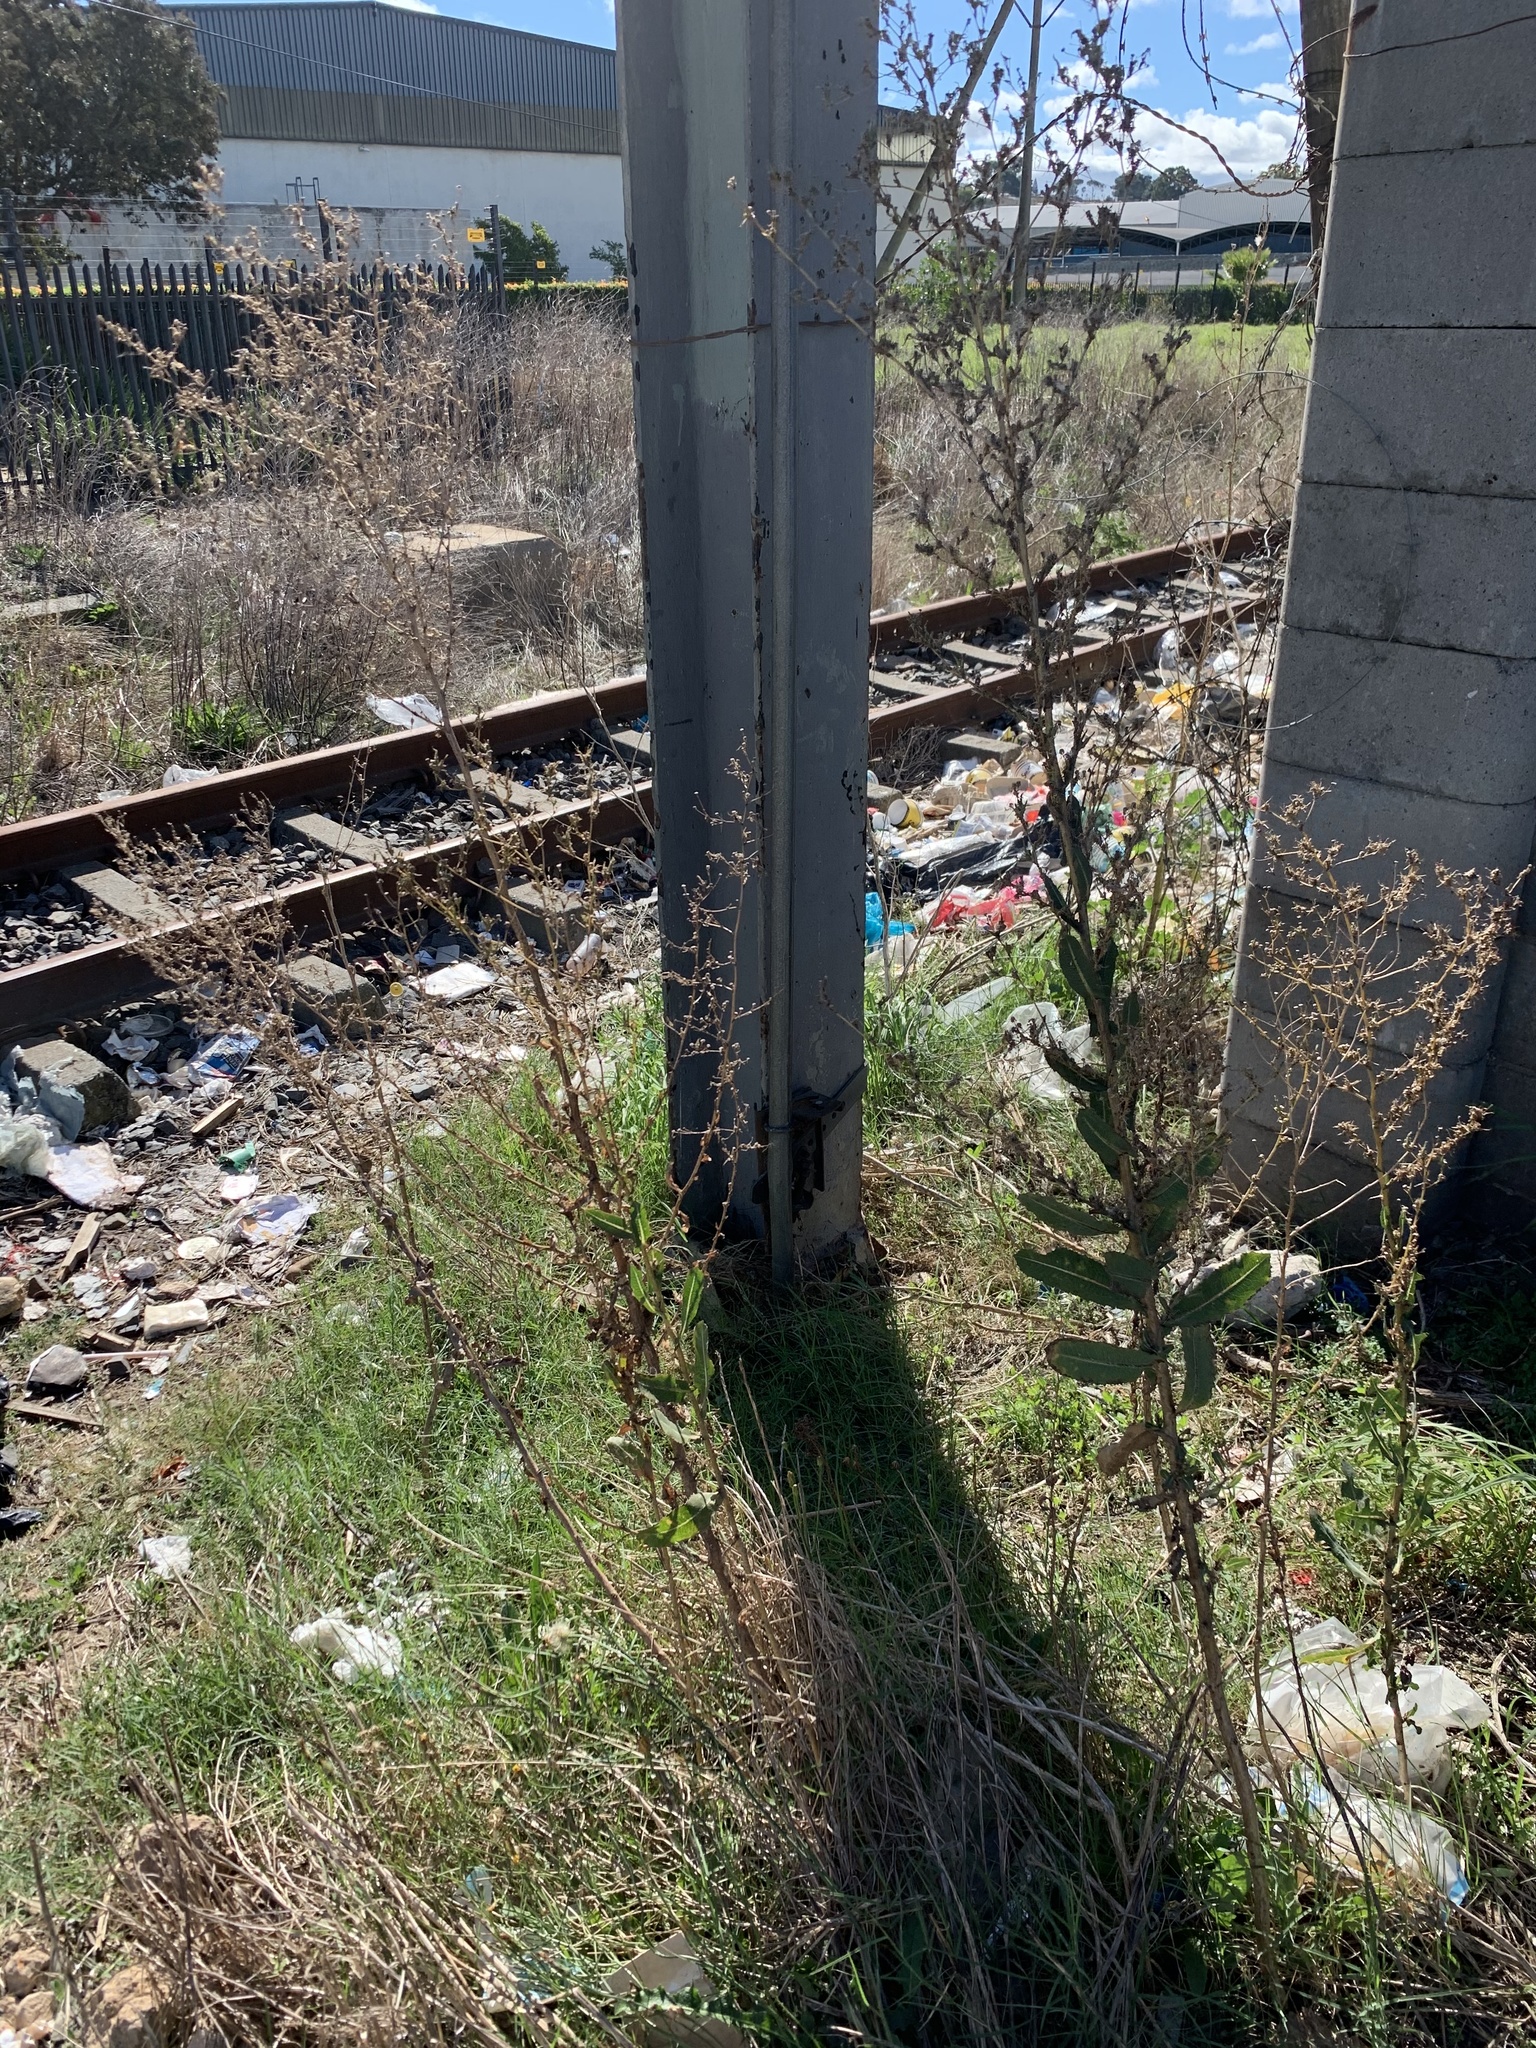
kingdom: Plantae
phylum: Tracheophyta
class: Magnoliopsida
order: Asterales
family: Asteraceae
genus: Lactuca
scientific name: Lactuca serriola
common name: Prickly lettuce
